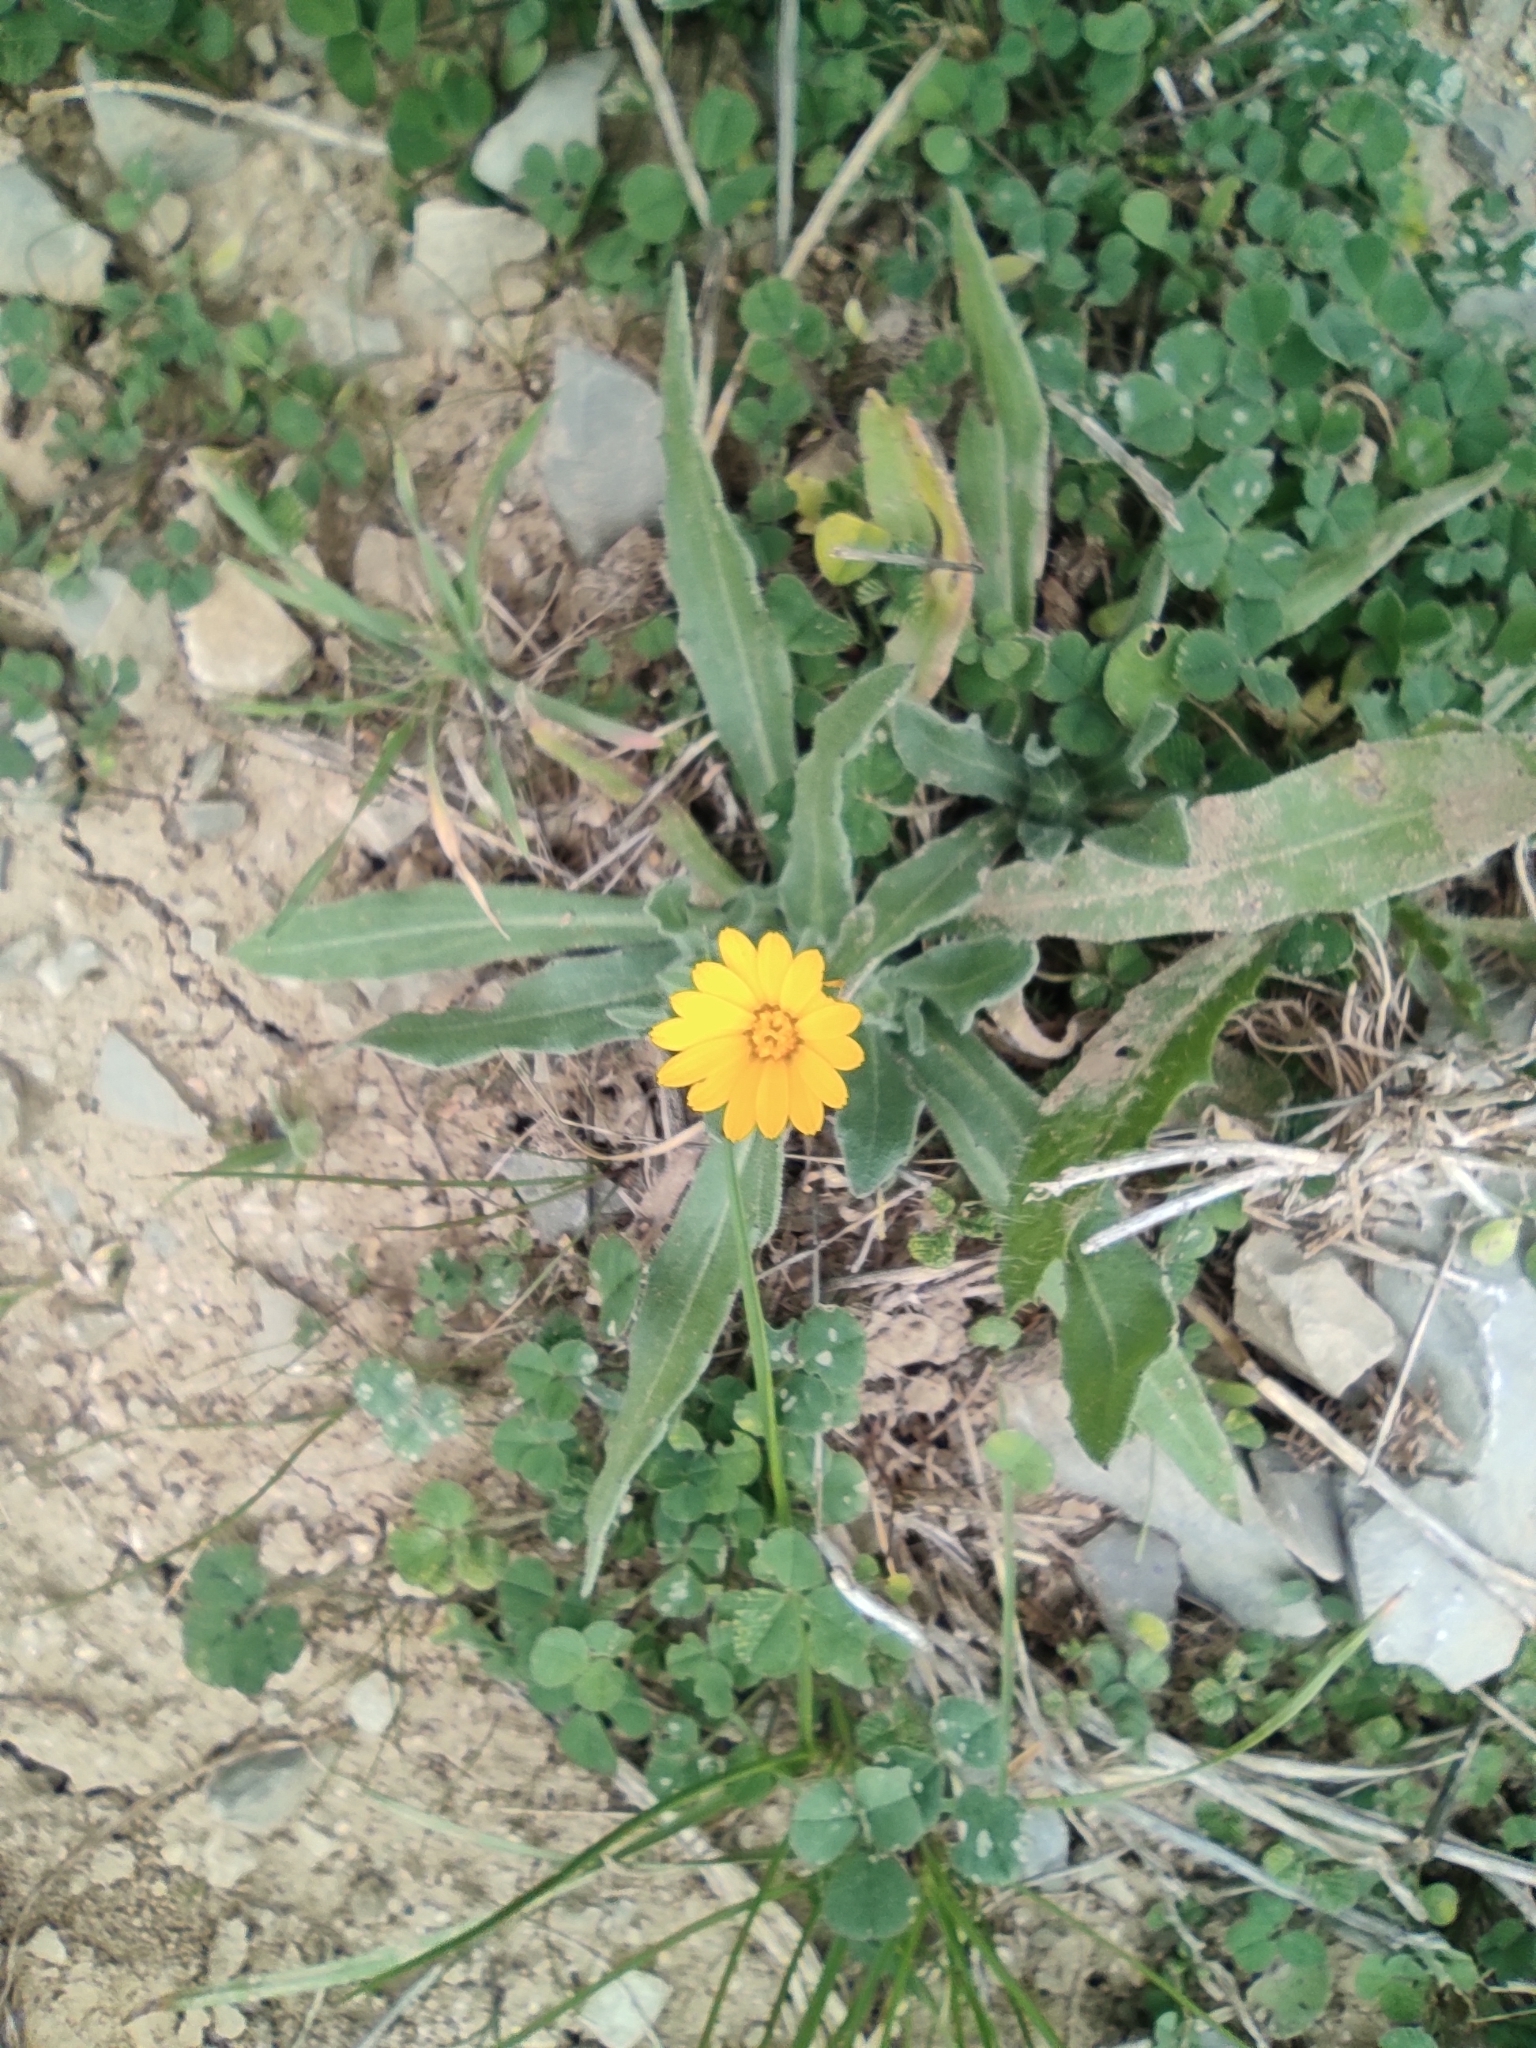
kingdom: Plantae
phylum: Tracheophyta
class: Magnoliopsida
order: Asterales
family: Asteraceae
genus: Calendula
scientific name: Calendula arvensis
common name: Field marigold
